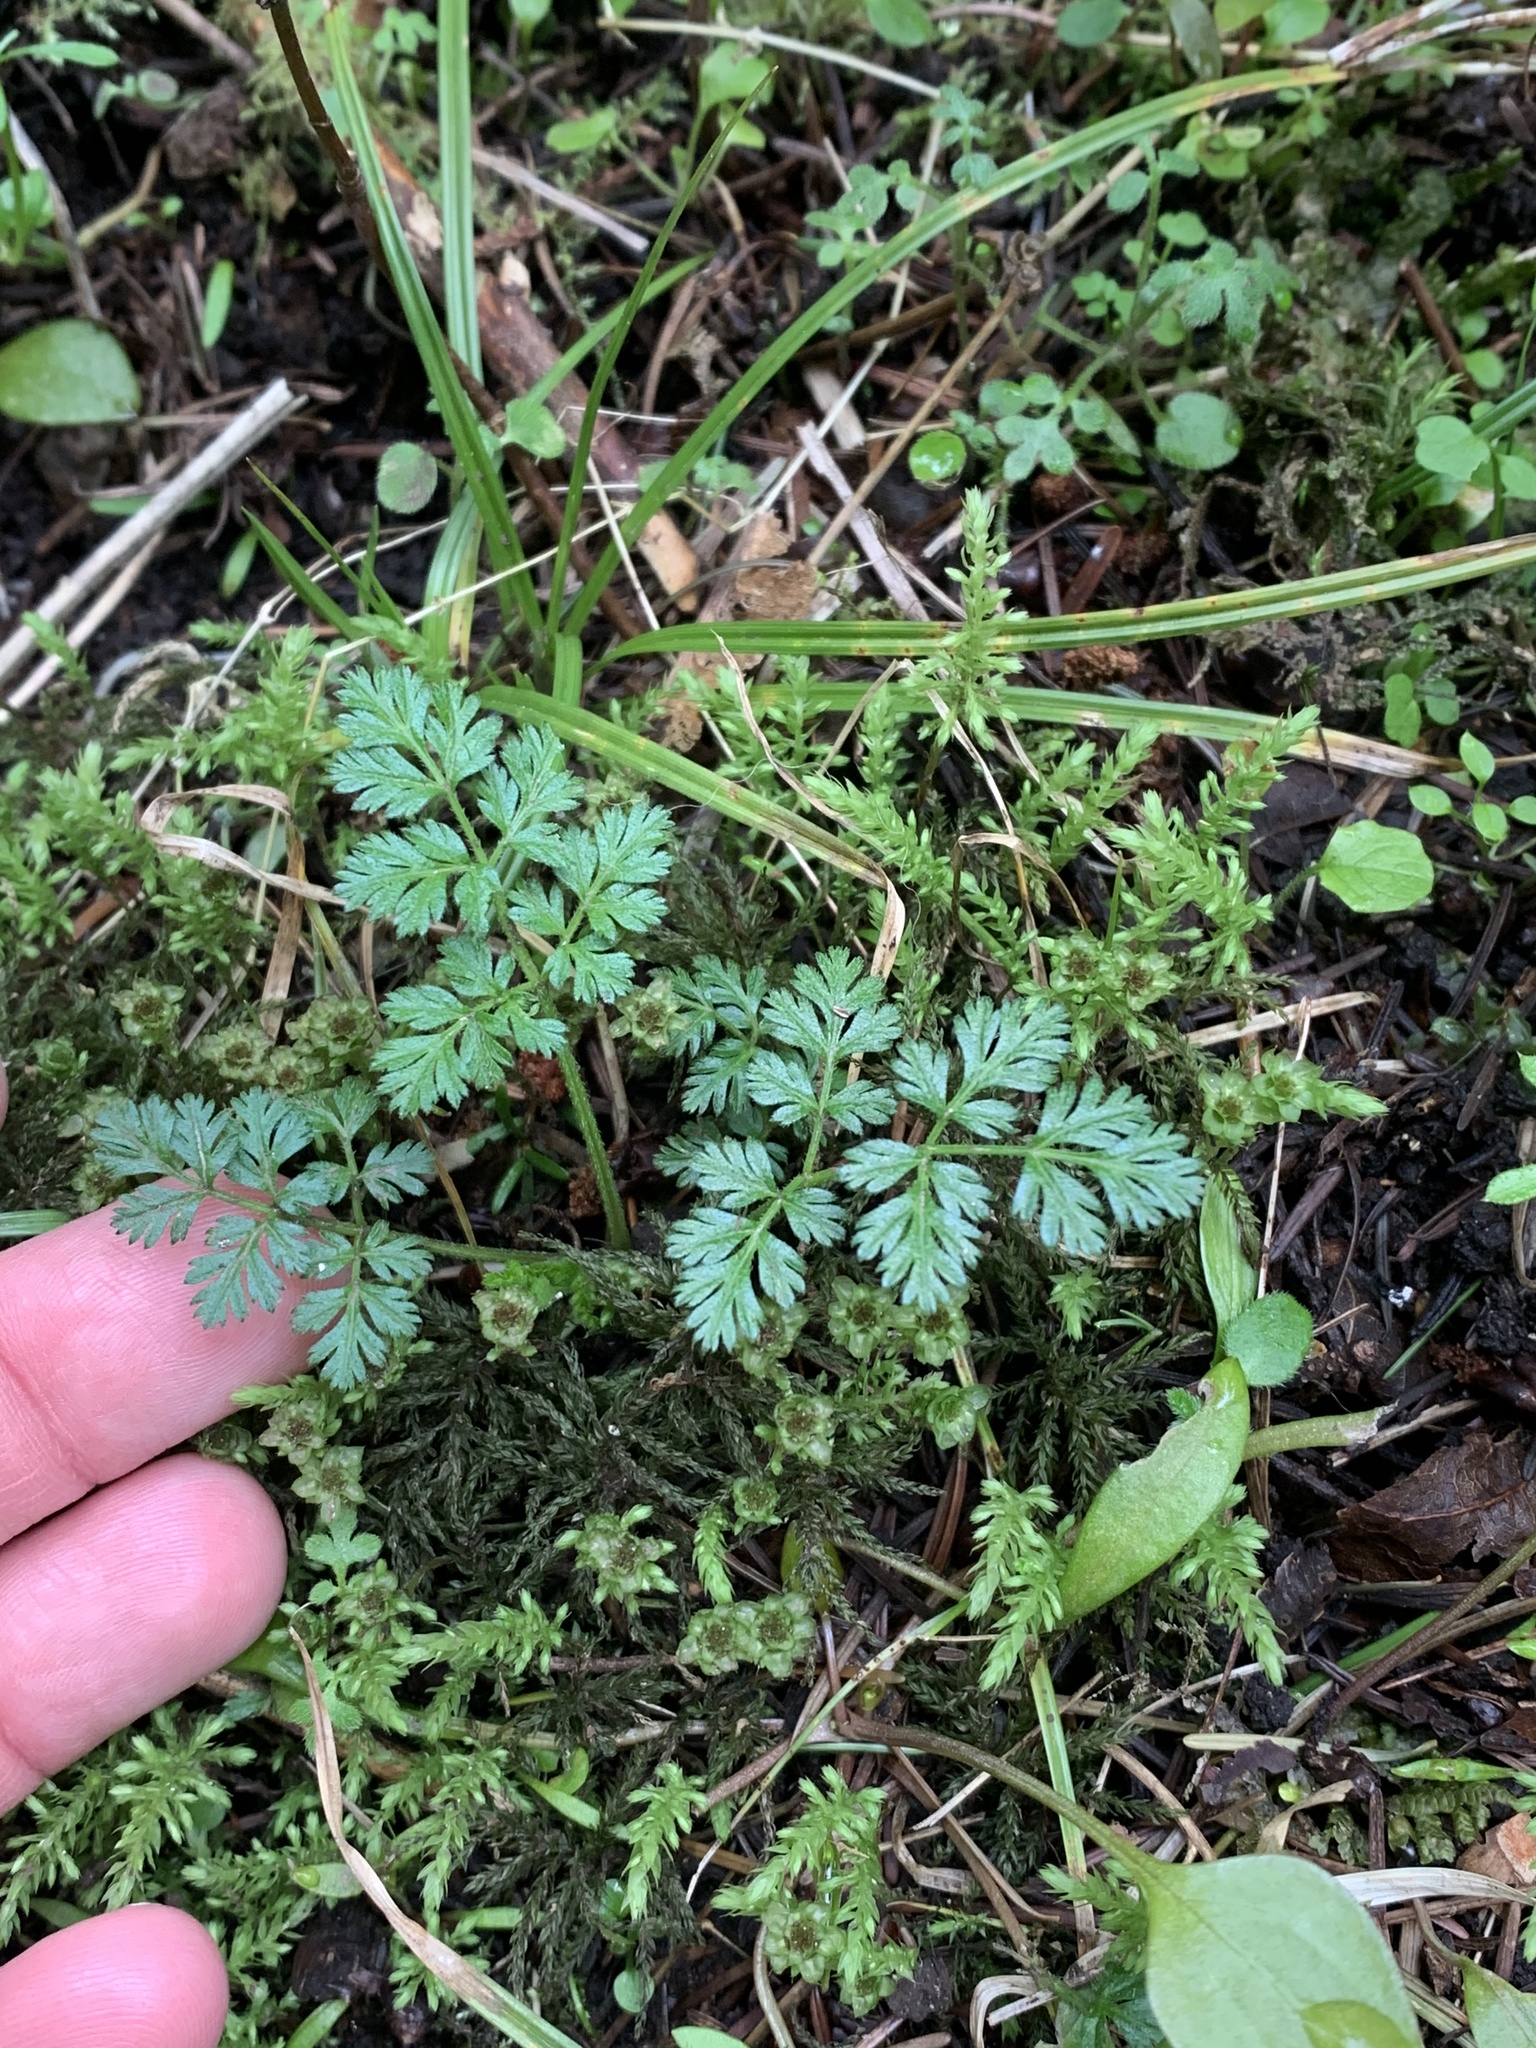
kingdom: Plantae
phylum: Tracheophyta
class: Magnoliopsida
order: Apiales
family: Apiaceae
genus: Torilis
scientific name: Torilis japonica
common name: Upright hedge-parsley
